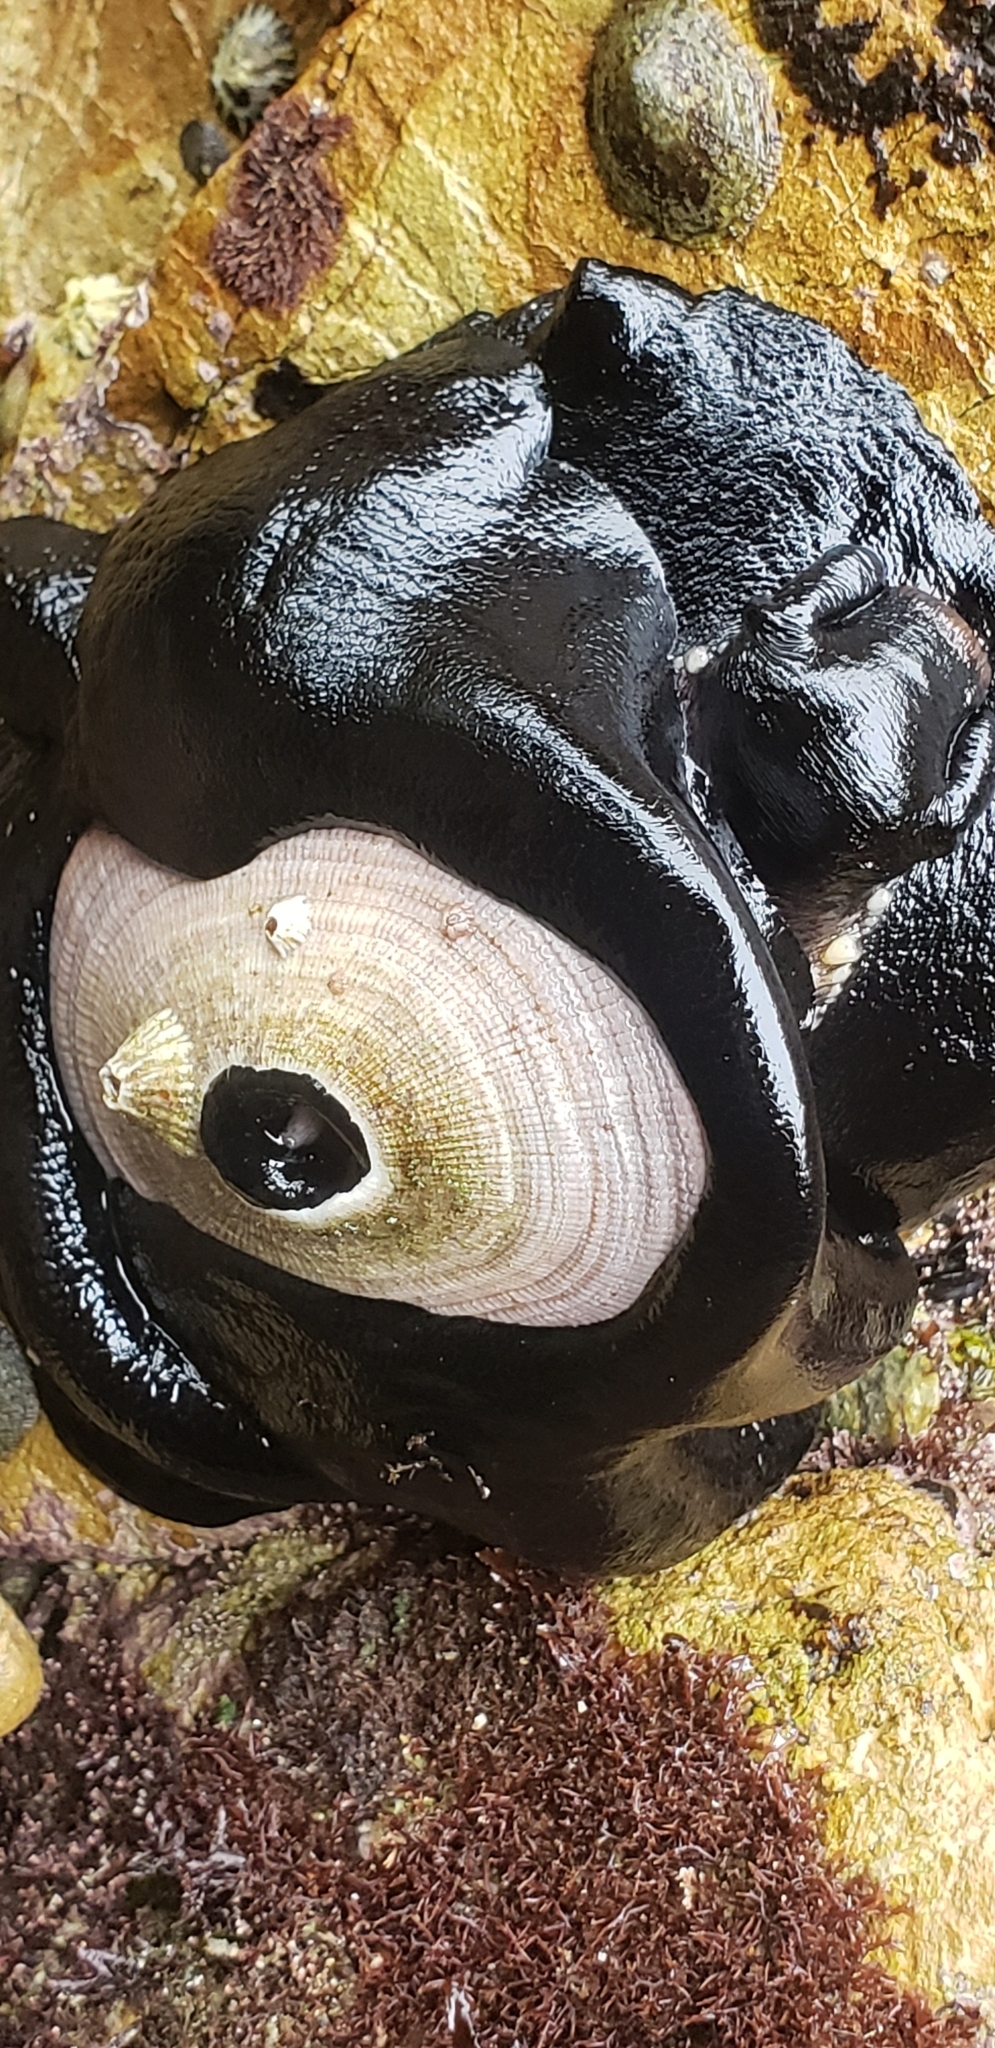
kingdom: Animalia
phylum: Mollusca
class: Gastropoda
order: Lepetellida
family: Fissurellidae
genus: Megathura
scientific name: Megathura crenulata
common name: Giant keyhole limpet
